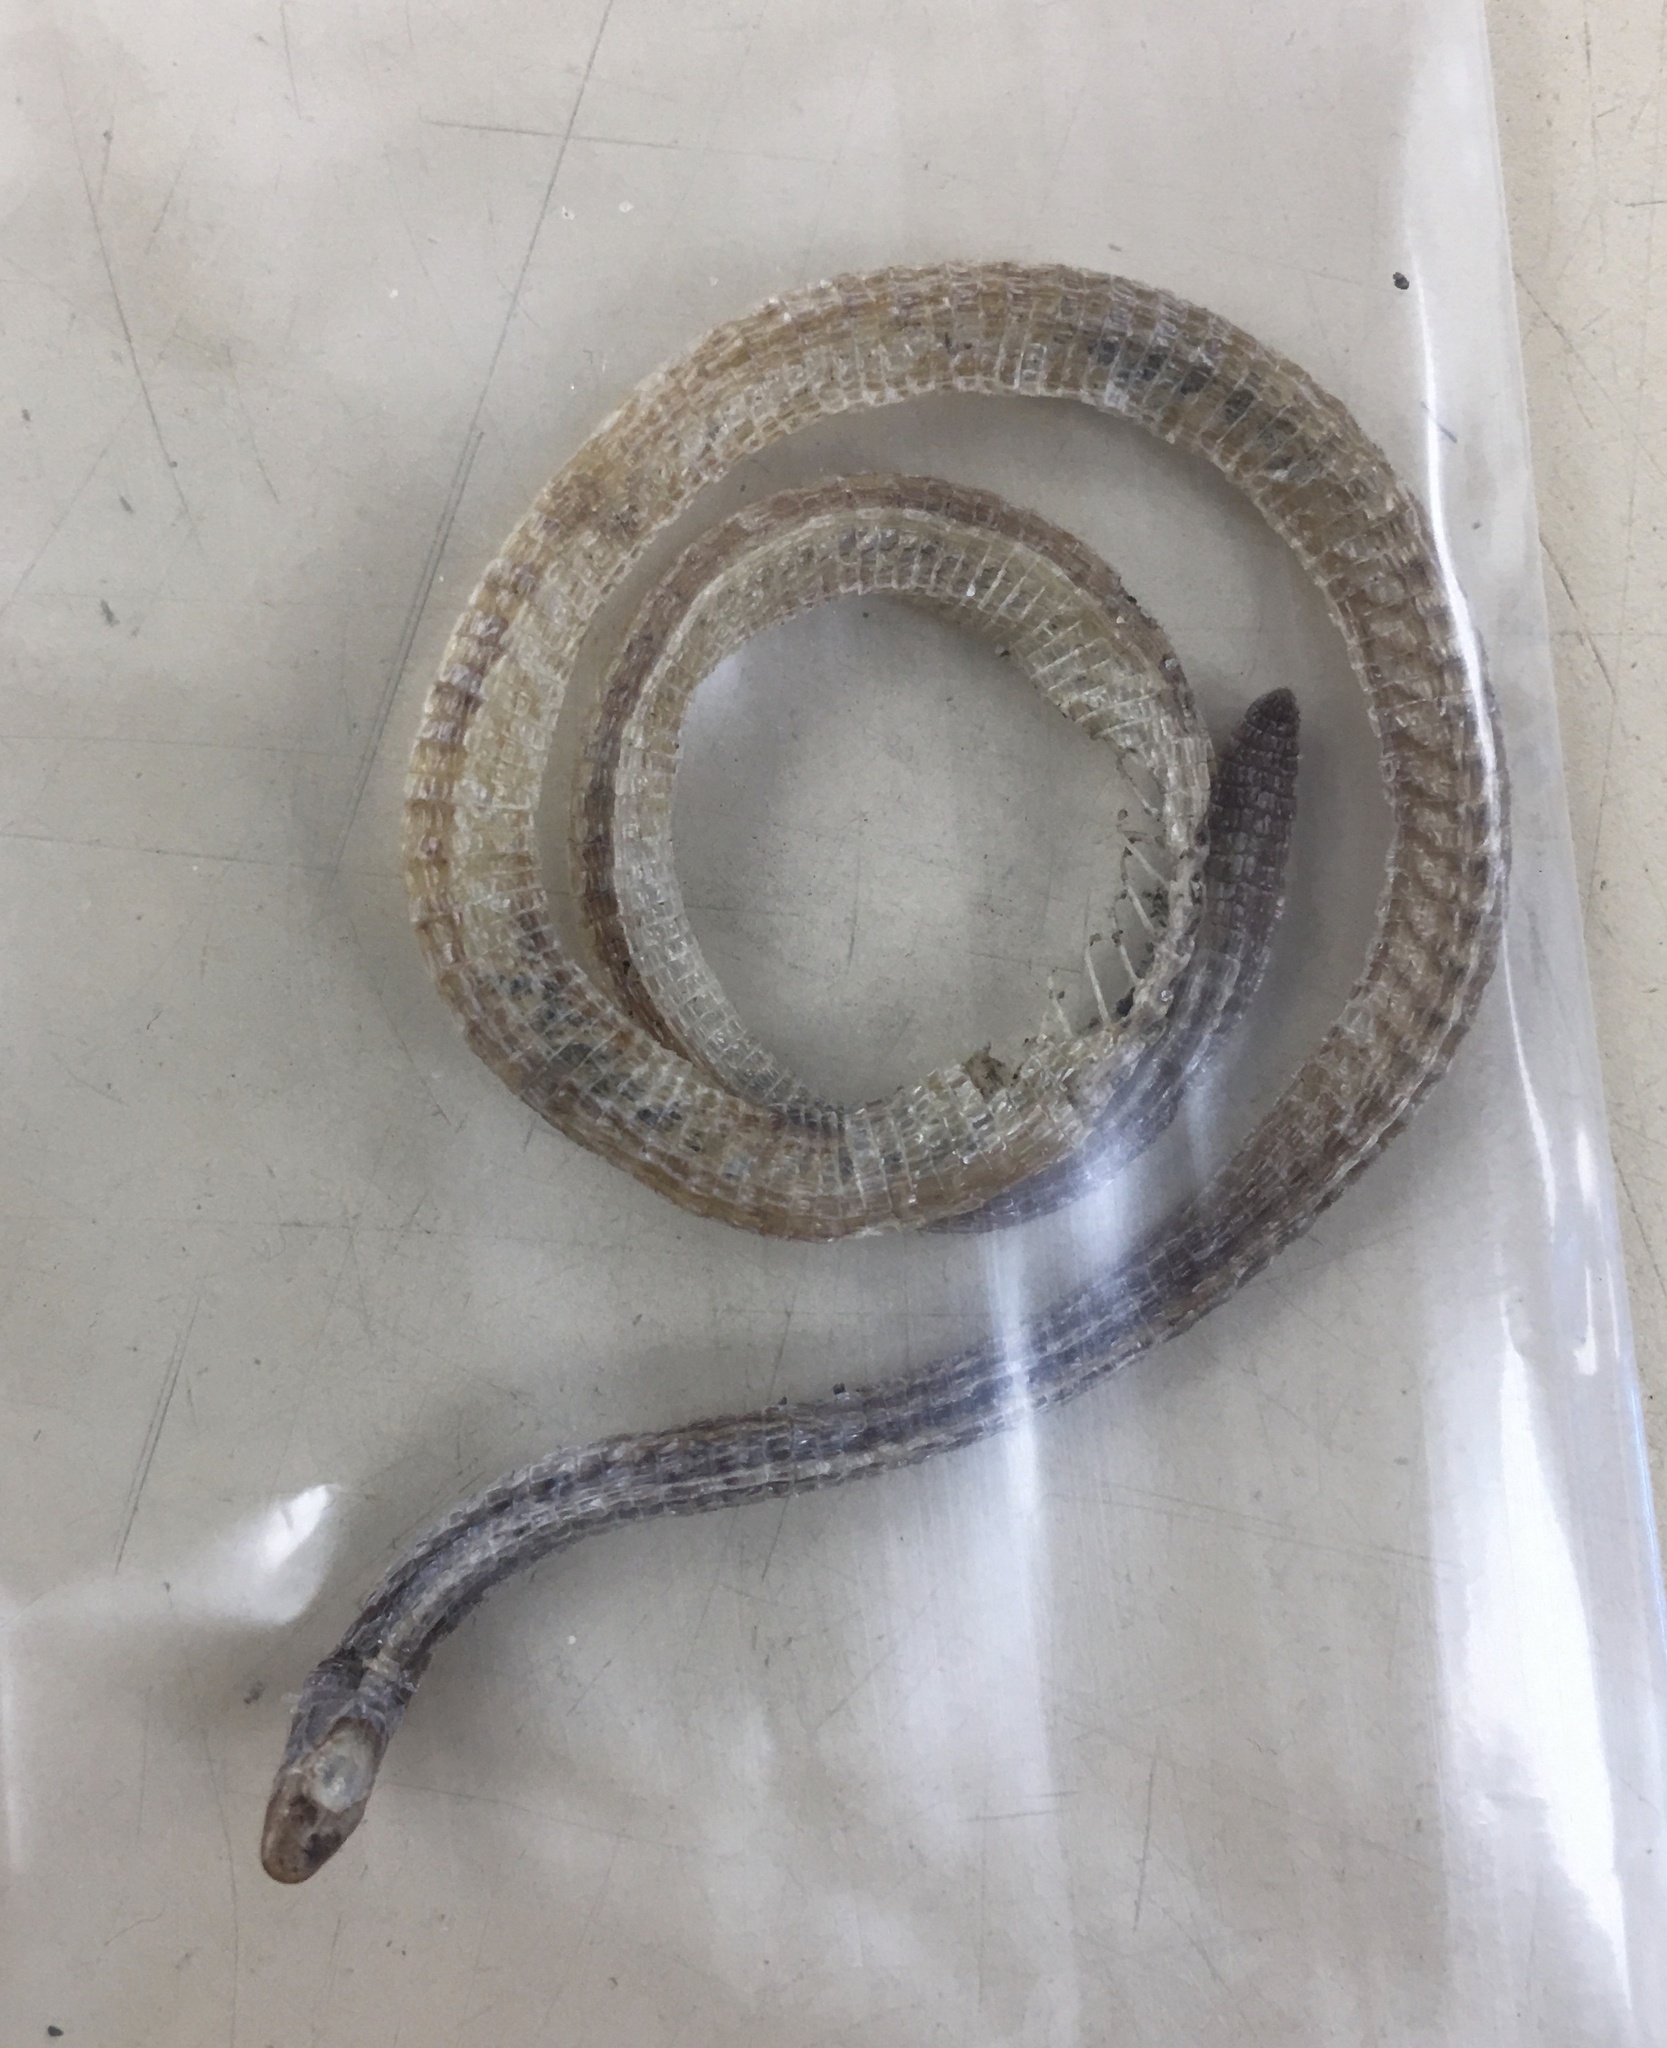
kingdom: Animalia
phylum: Chordata
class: Squamata
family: Rhineuridae
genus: Rhineura
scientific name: Rhineura floridana
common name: Florida worm lizard
